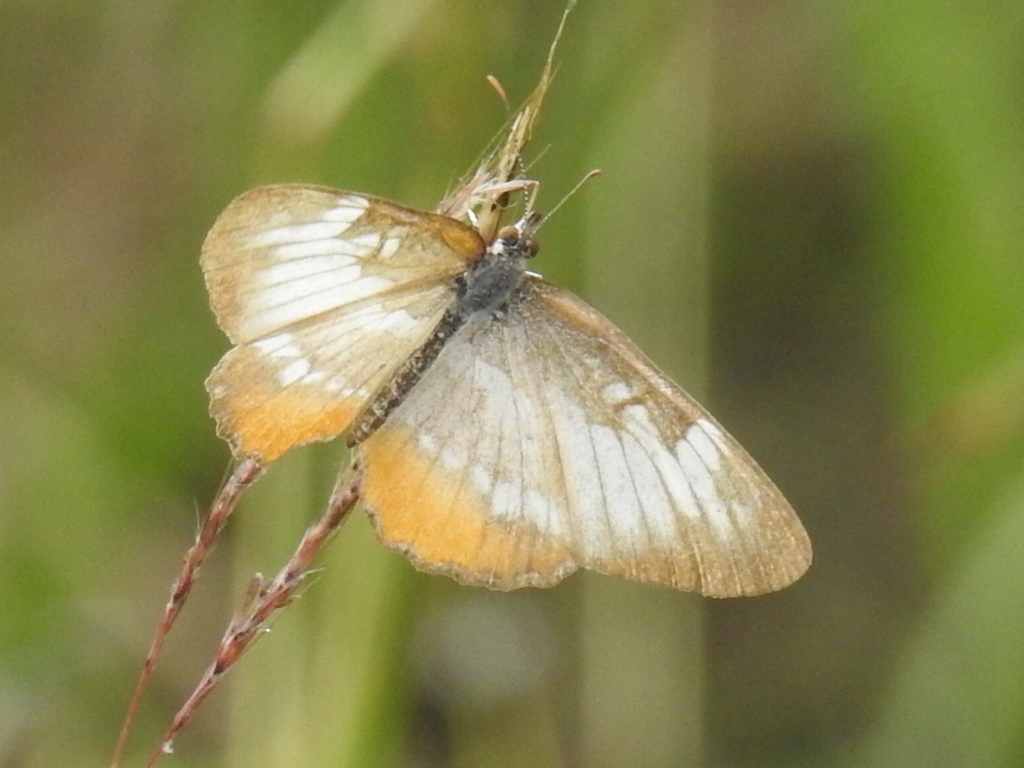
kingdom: Animalia
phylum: Arthropoda
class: Insecta
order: Lepidoptera
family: Nymphalidae
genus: Mestra
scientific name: Mestra amymone
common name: Common mestra
